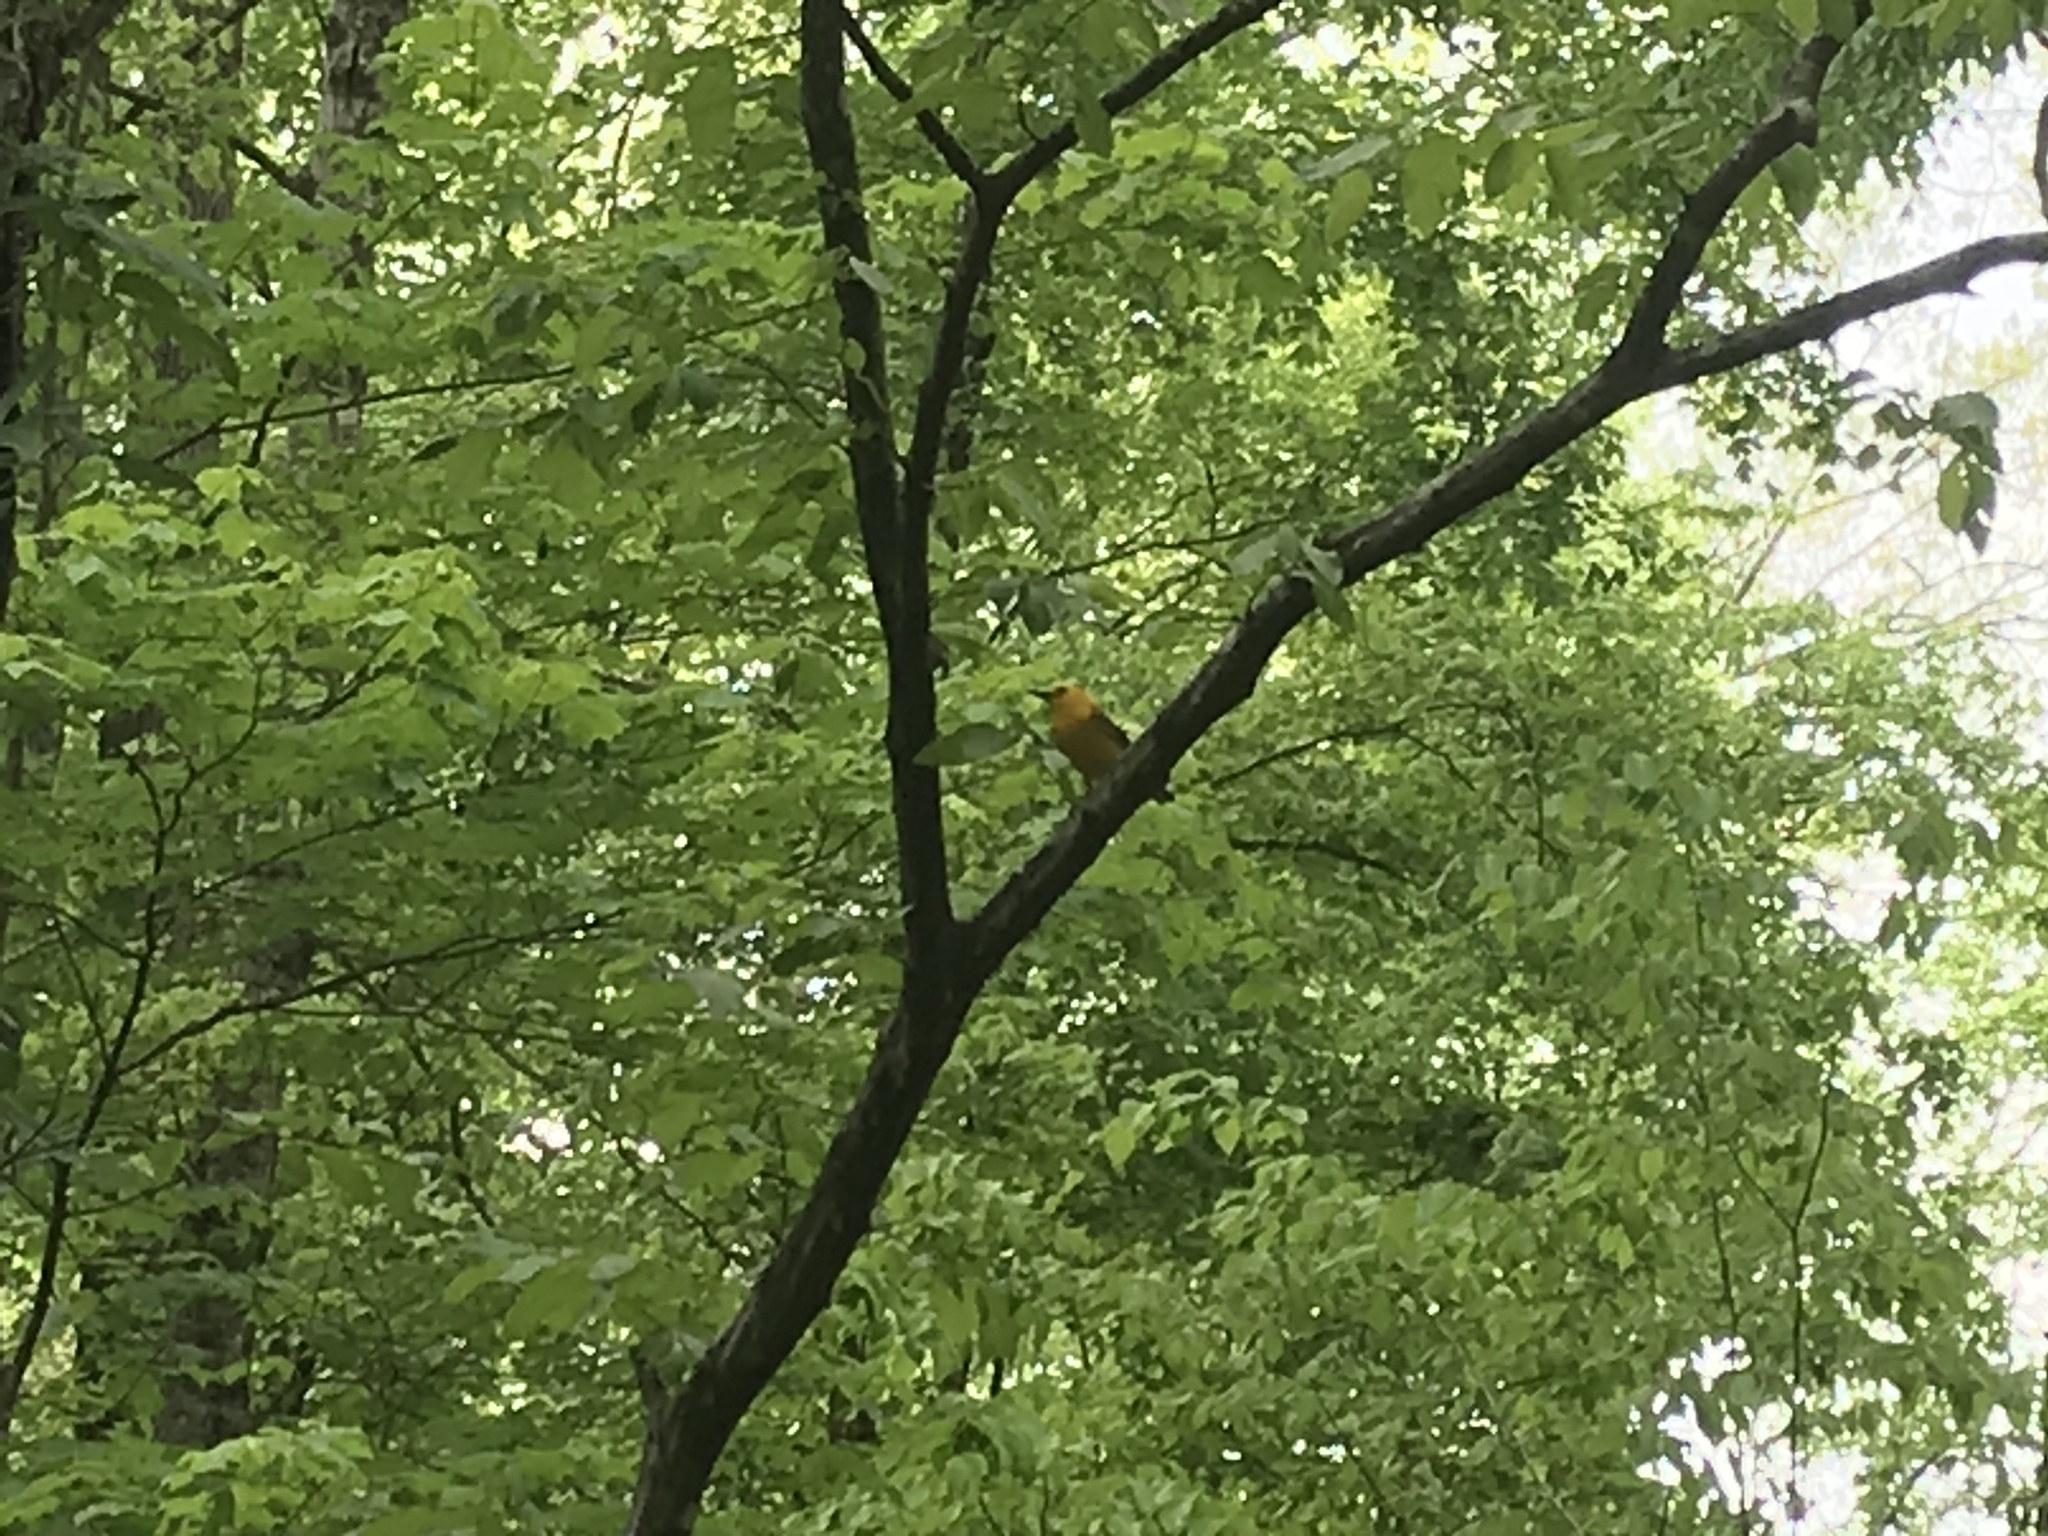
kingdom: Animalia
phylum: Chordata
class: Aves
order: Passeriformes
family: Parulidae
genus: Protonotaria
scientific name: Protonotaria citrea
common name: Prothonotary warbler
